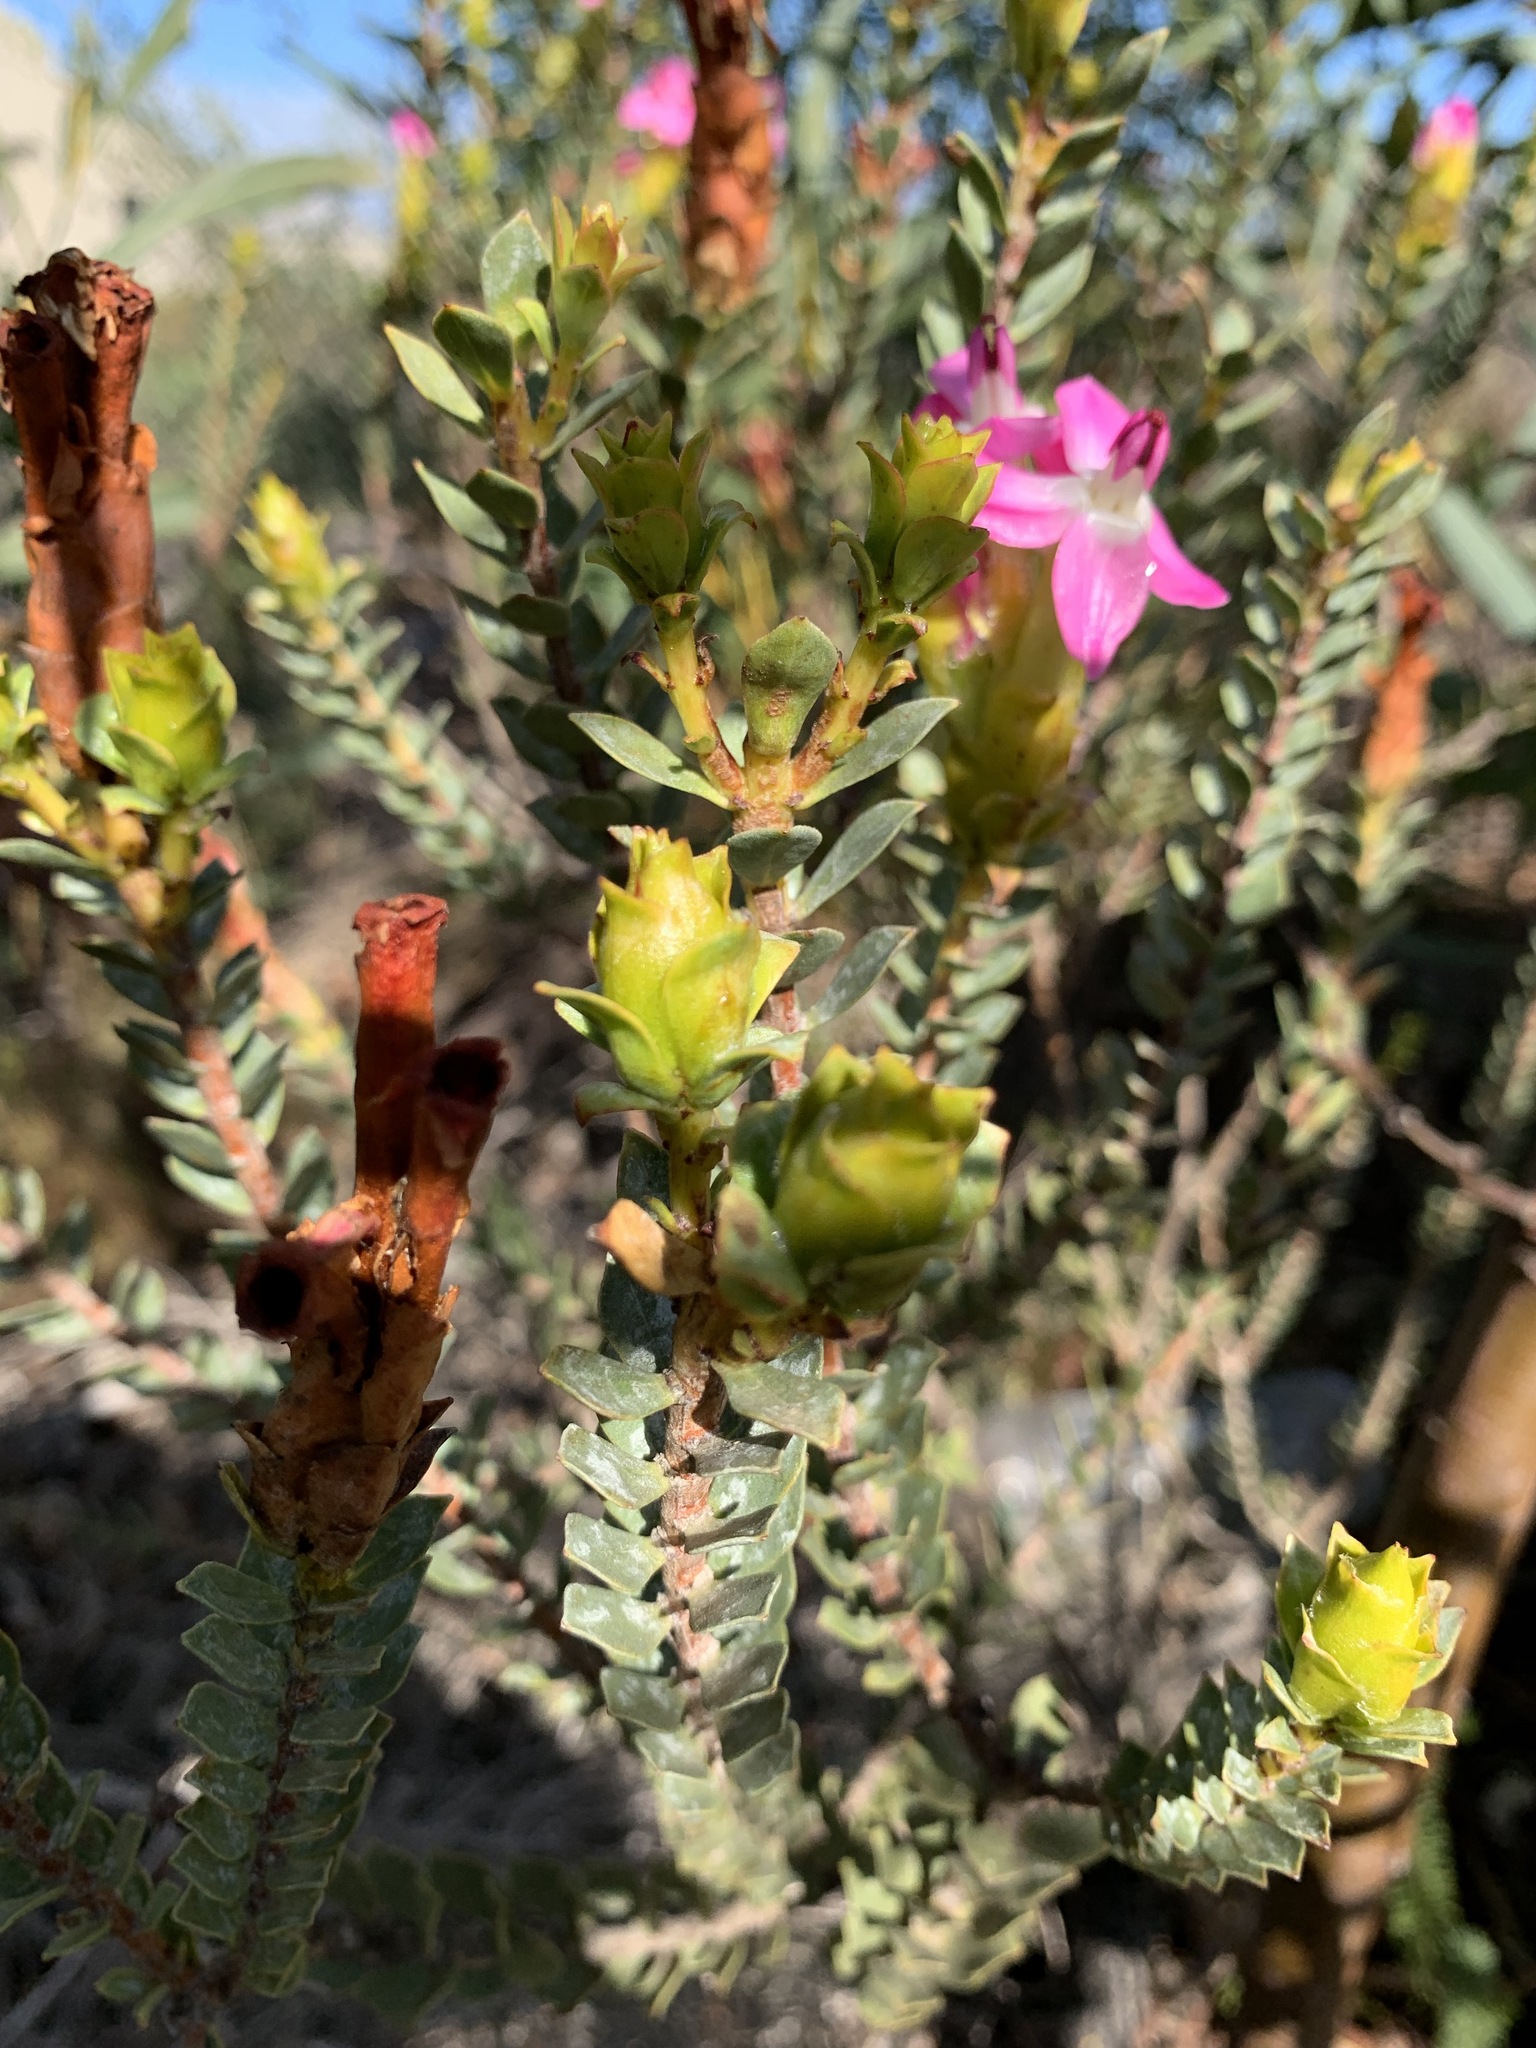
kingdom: Plantae
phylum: Tracheophyta
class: Magnoliopsida
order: Myrtales
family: Penaeaceae
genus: Saltera
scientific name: Saltera sarcocolla
